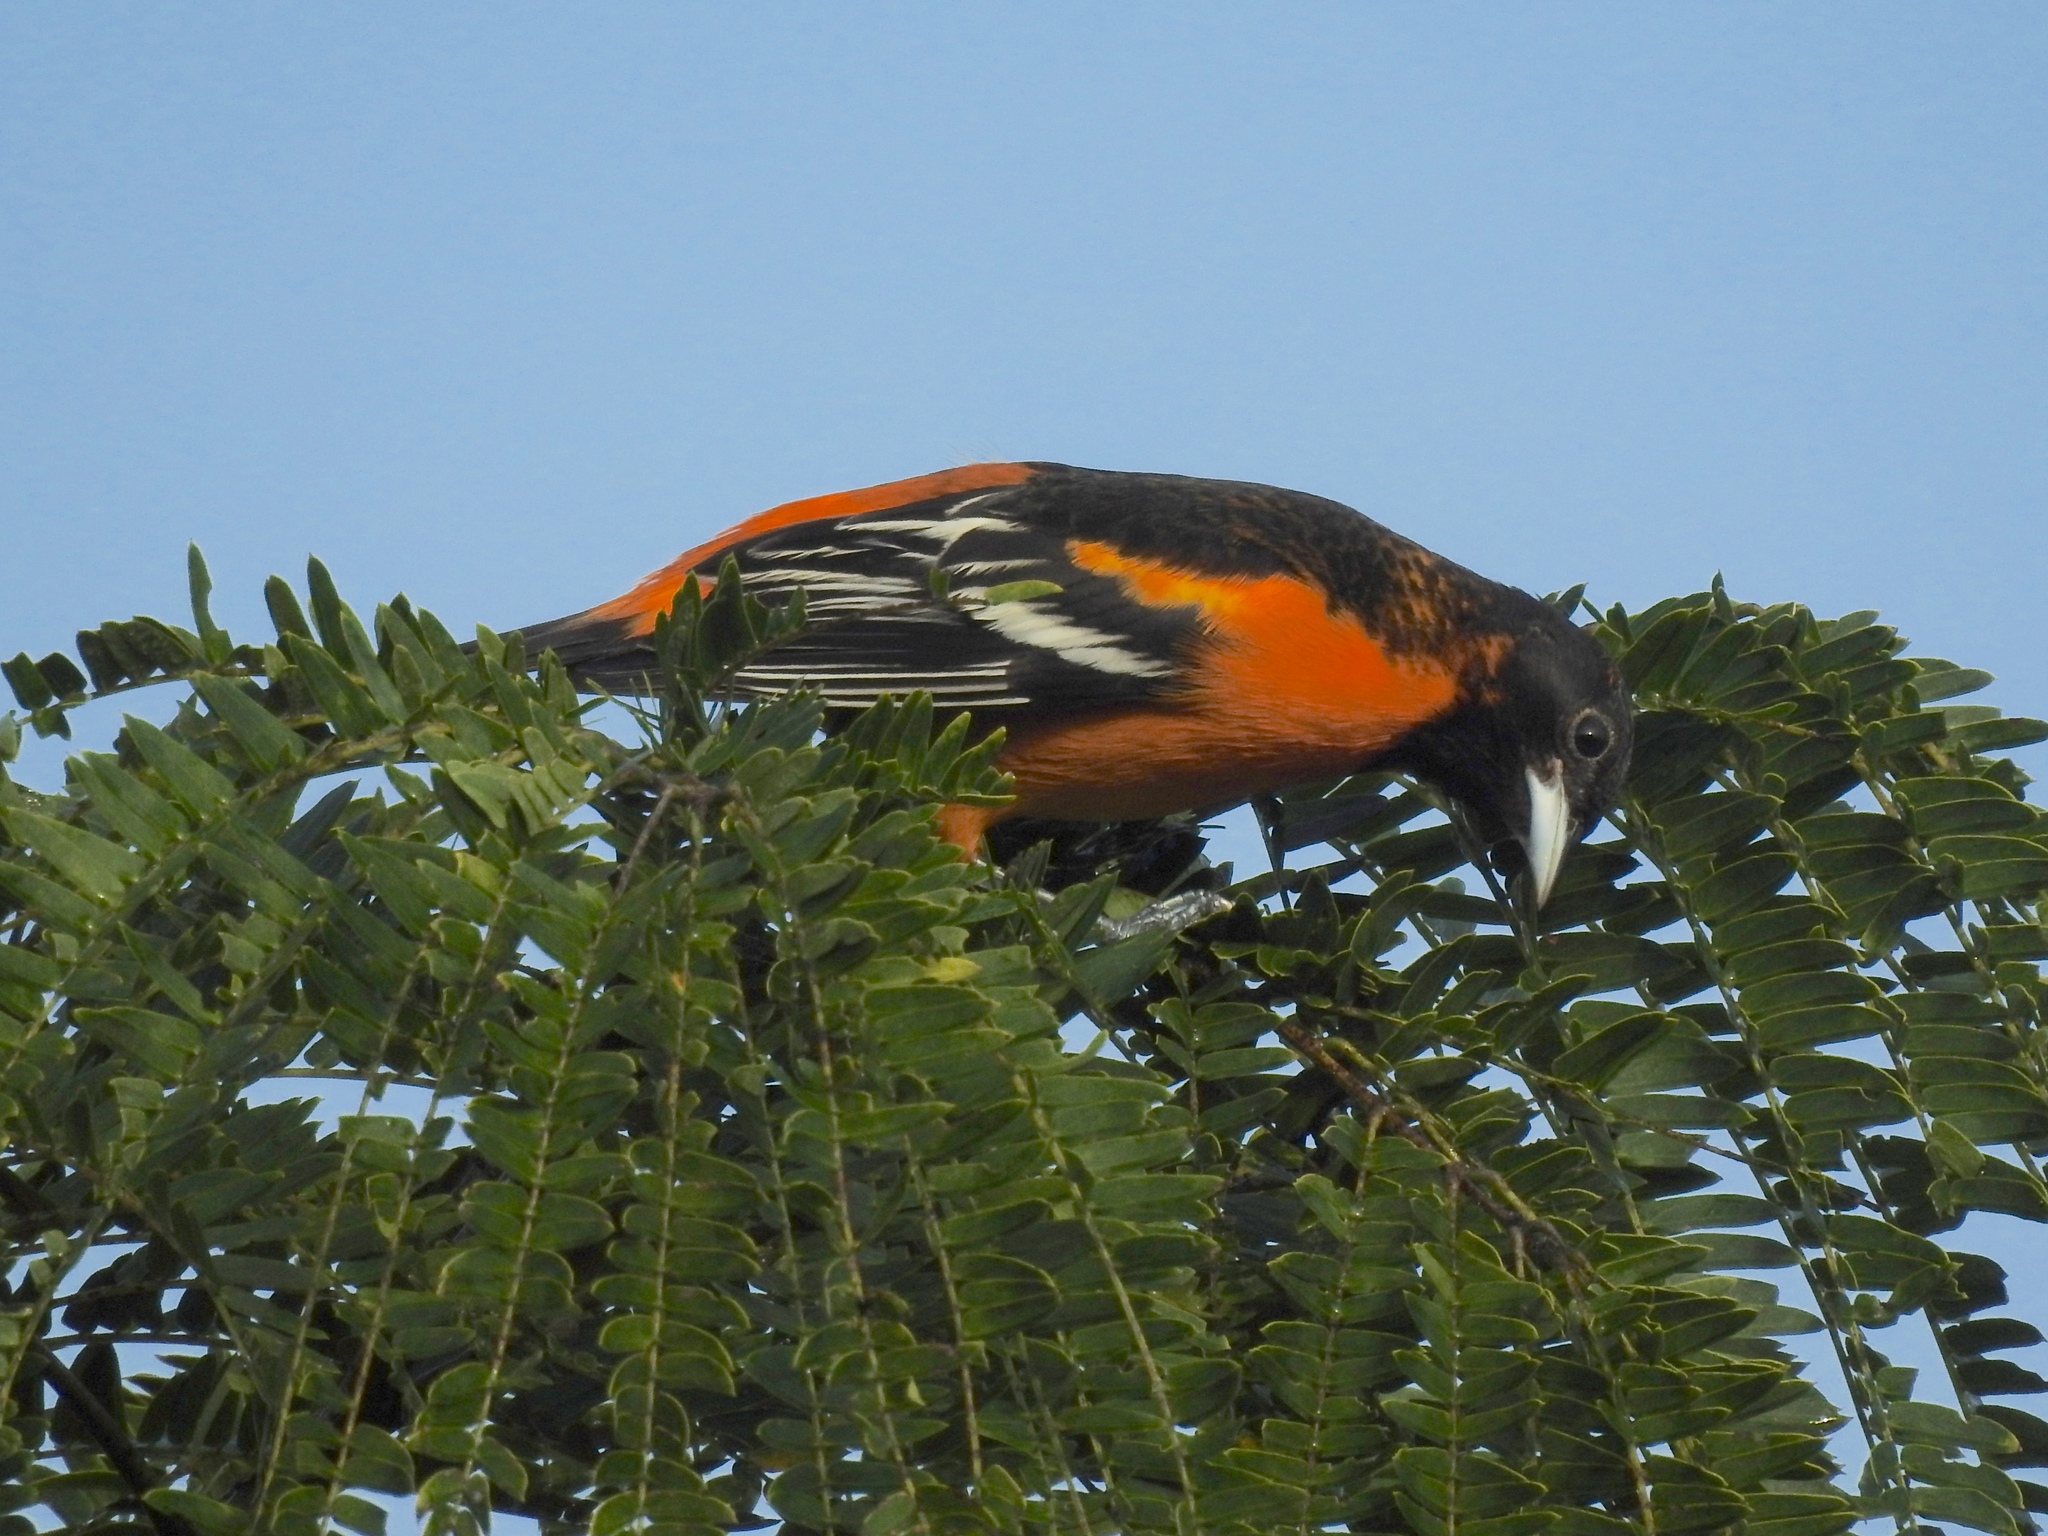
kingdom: Animalia
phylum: Chordata
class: Aves
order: Passeriformes
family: Icteridae
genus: Icterus
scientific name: Icterus galbula
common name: Baltimore oriole
